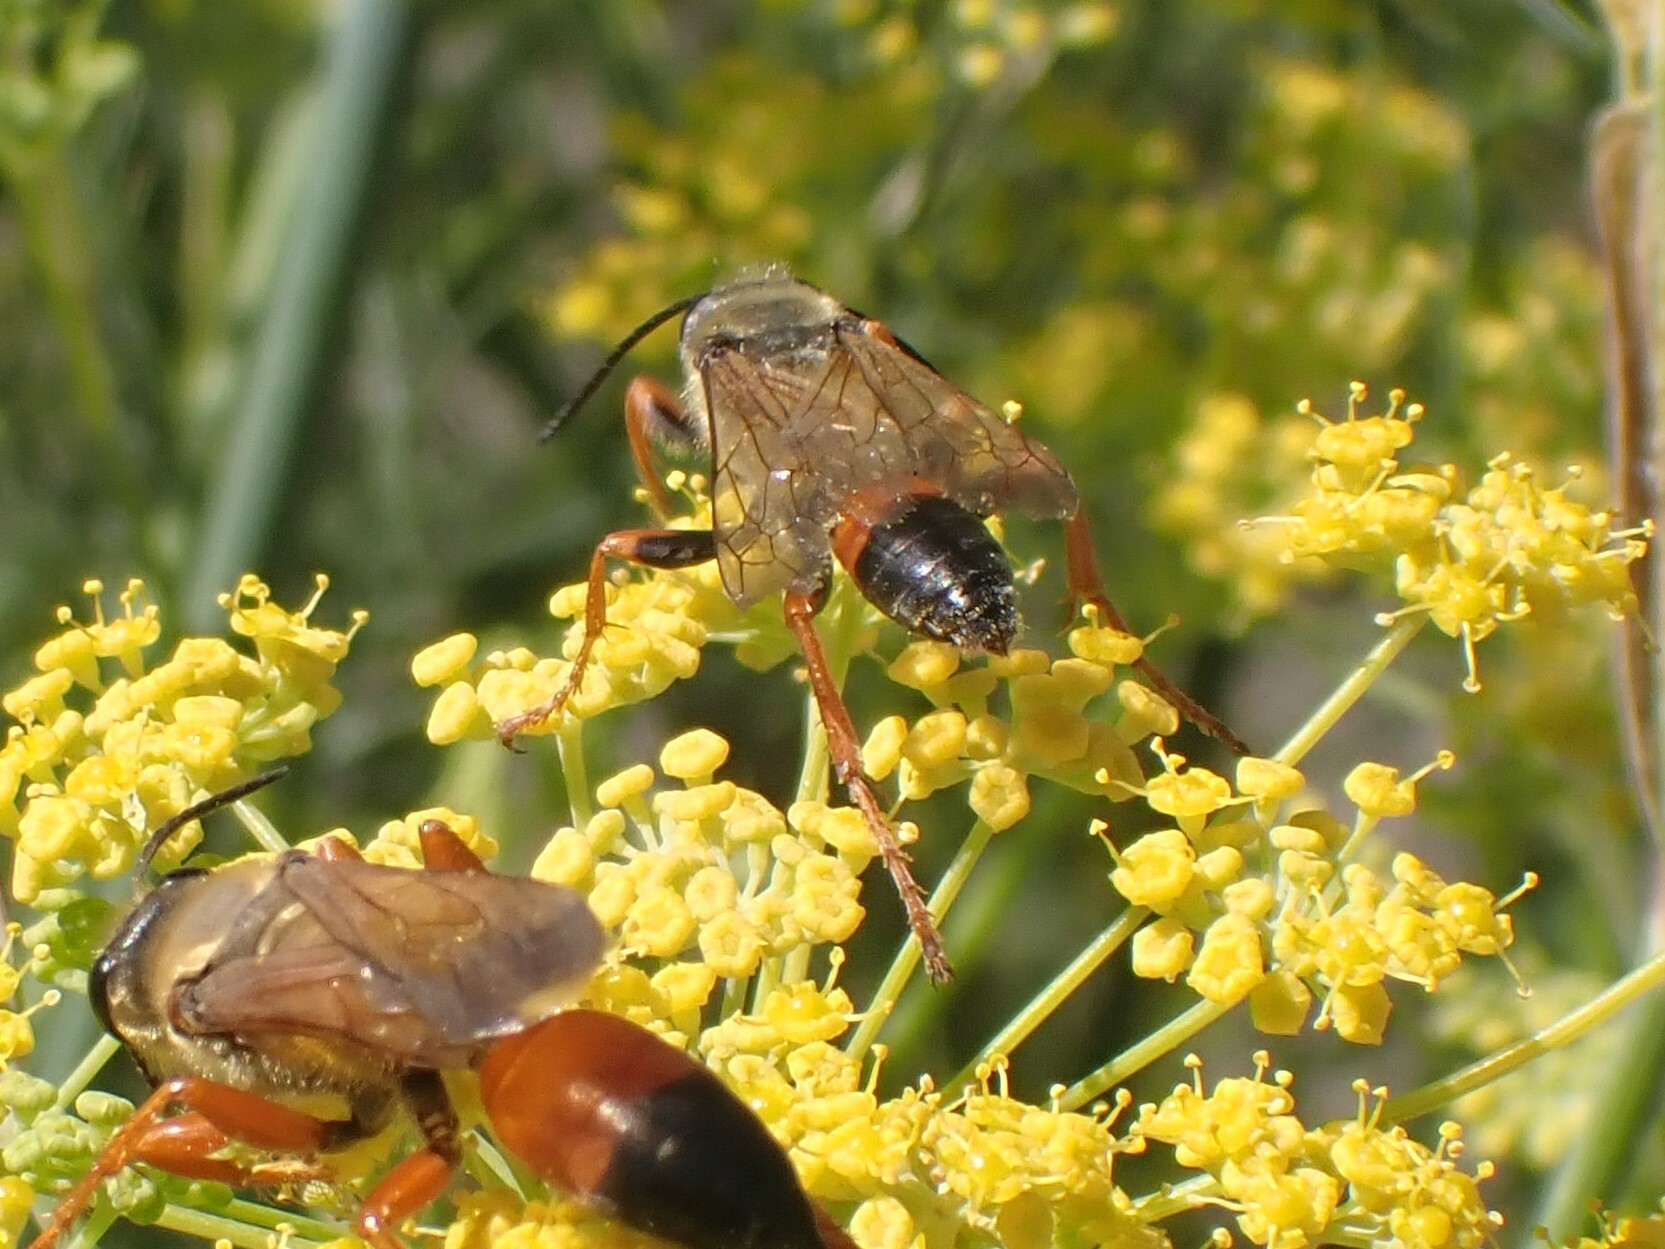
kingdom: Animalia
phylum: Arthropoda
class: Insecta
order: Hymenoptera
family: Sphecidae
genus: Sphex
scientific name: Sphex ichneumoneus
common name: Great golden digger wasp
